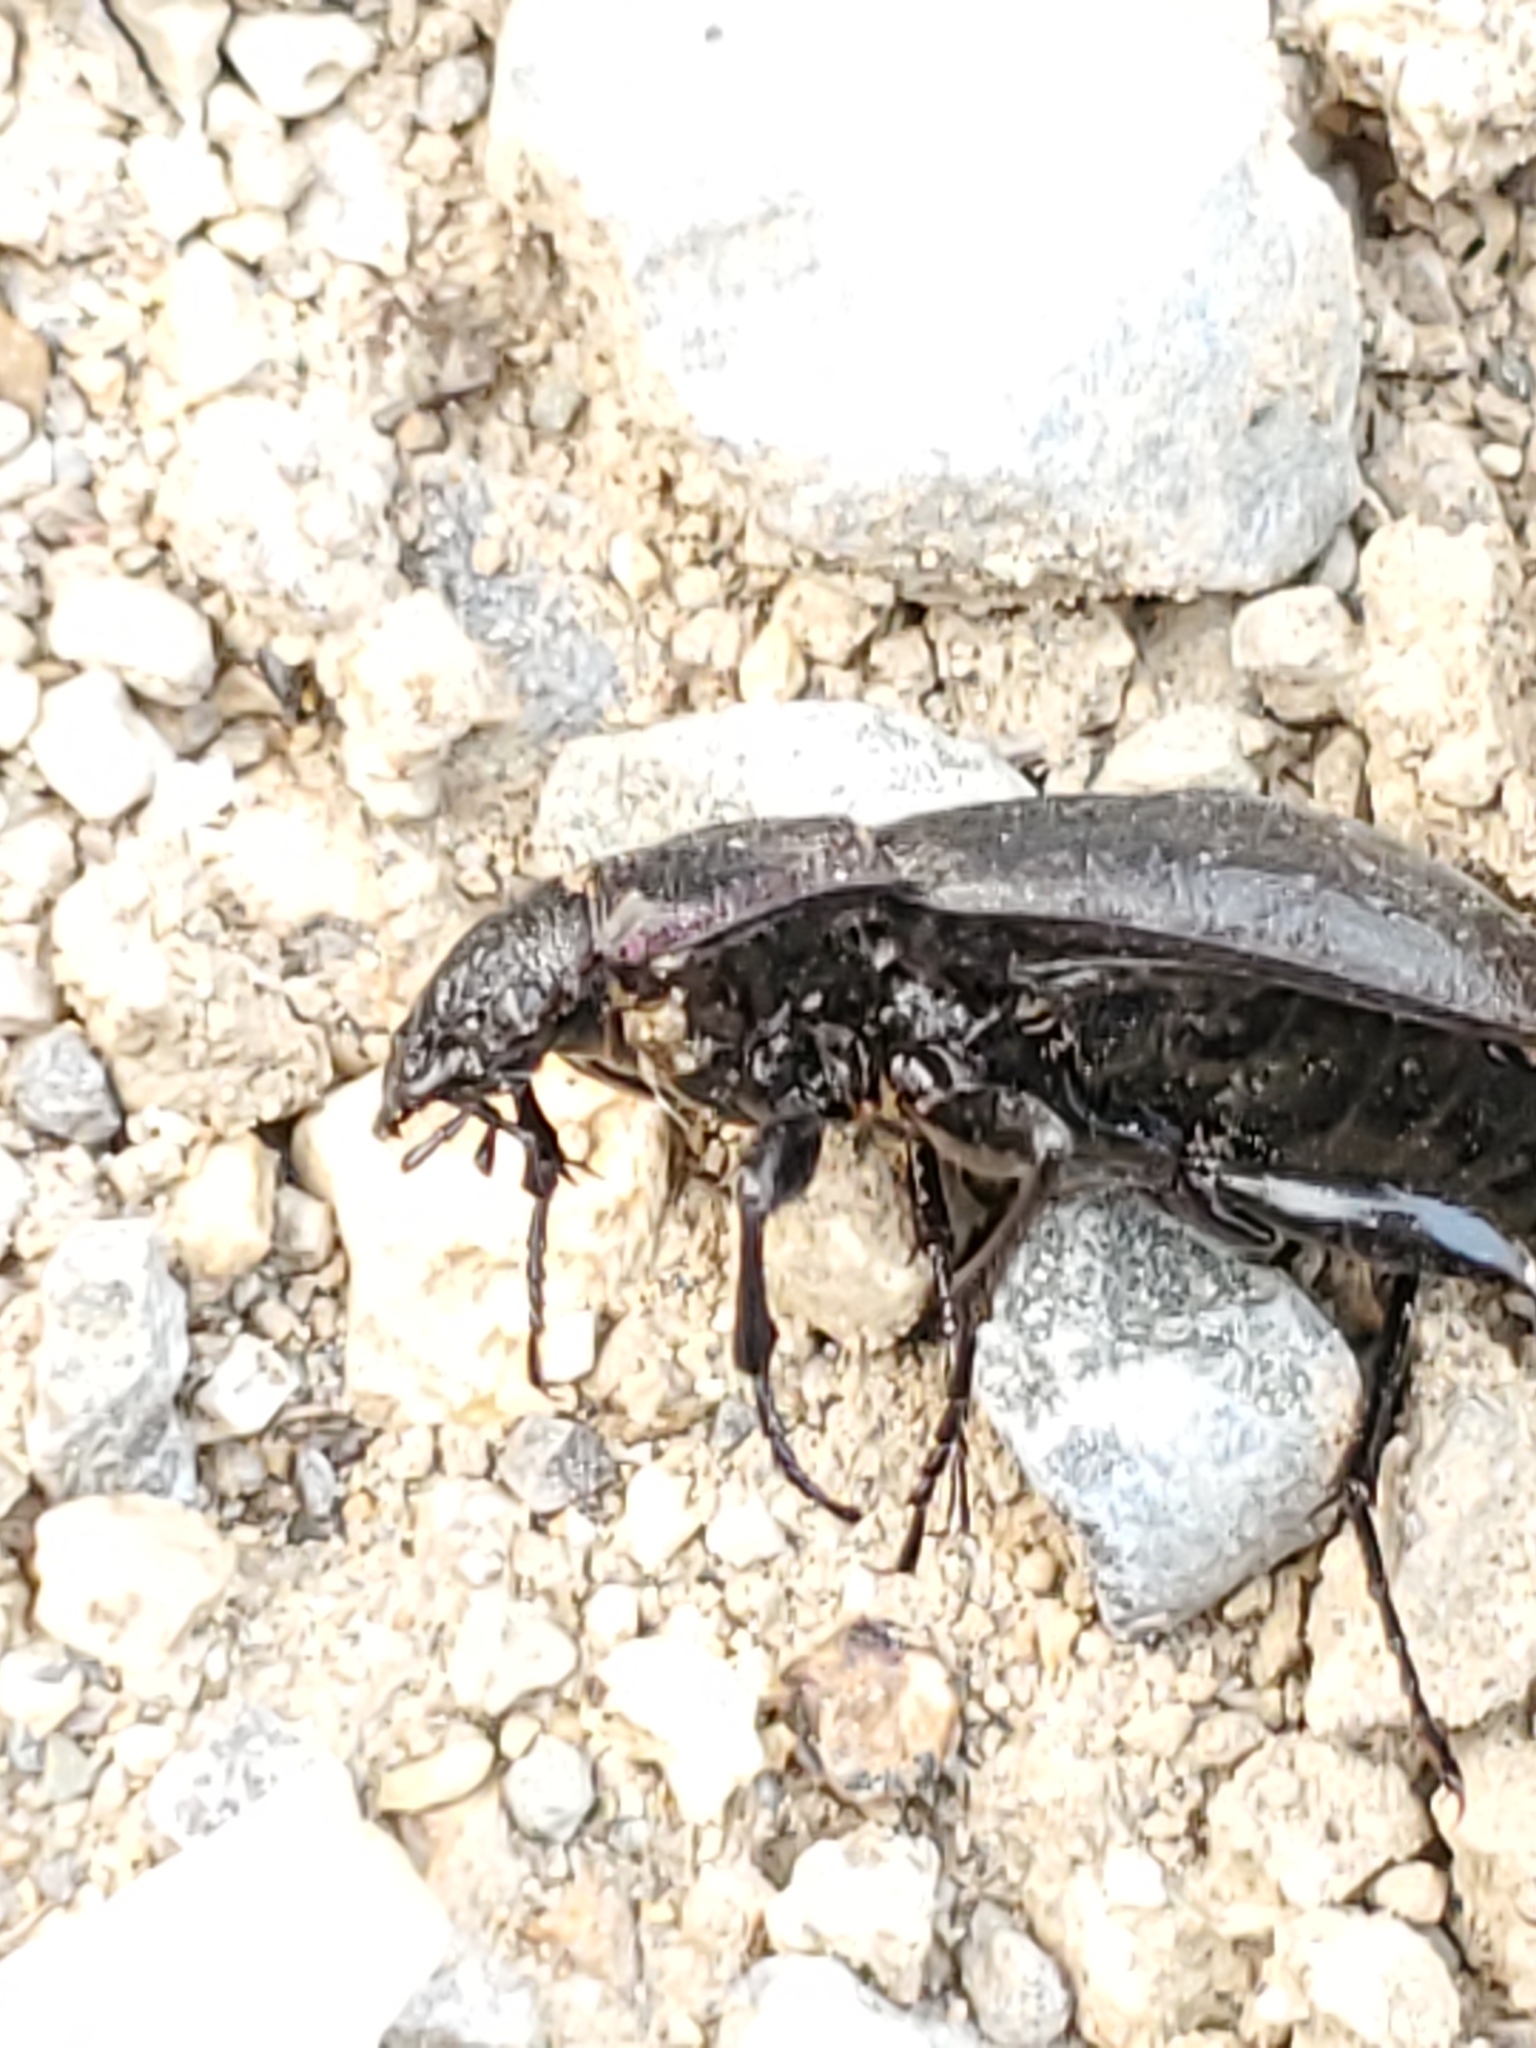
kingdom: Animalia
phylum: Arthropoda
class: Insecta
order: Coleoptera
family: Carabidae
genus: Carabus
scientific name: Carabus nemoralis
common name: European ground beetle
